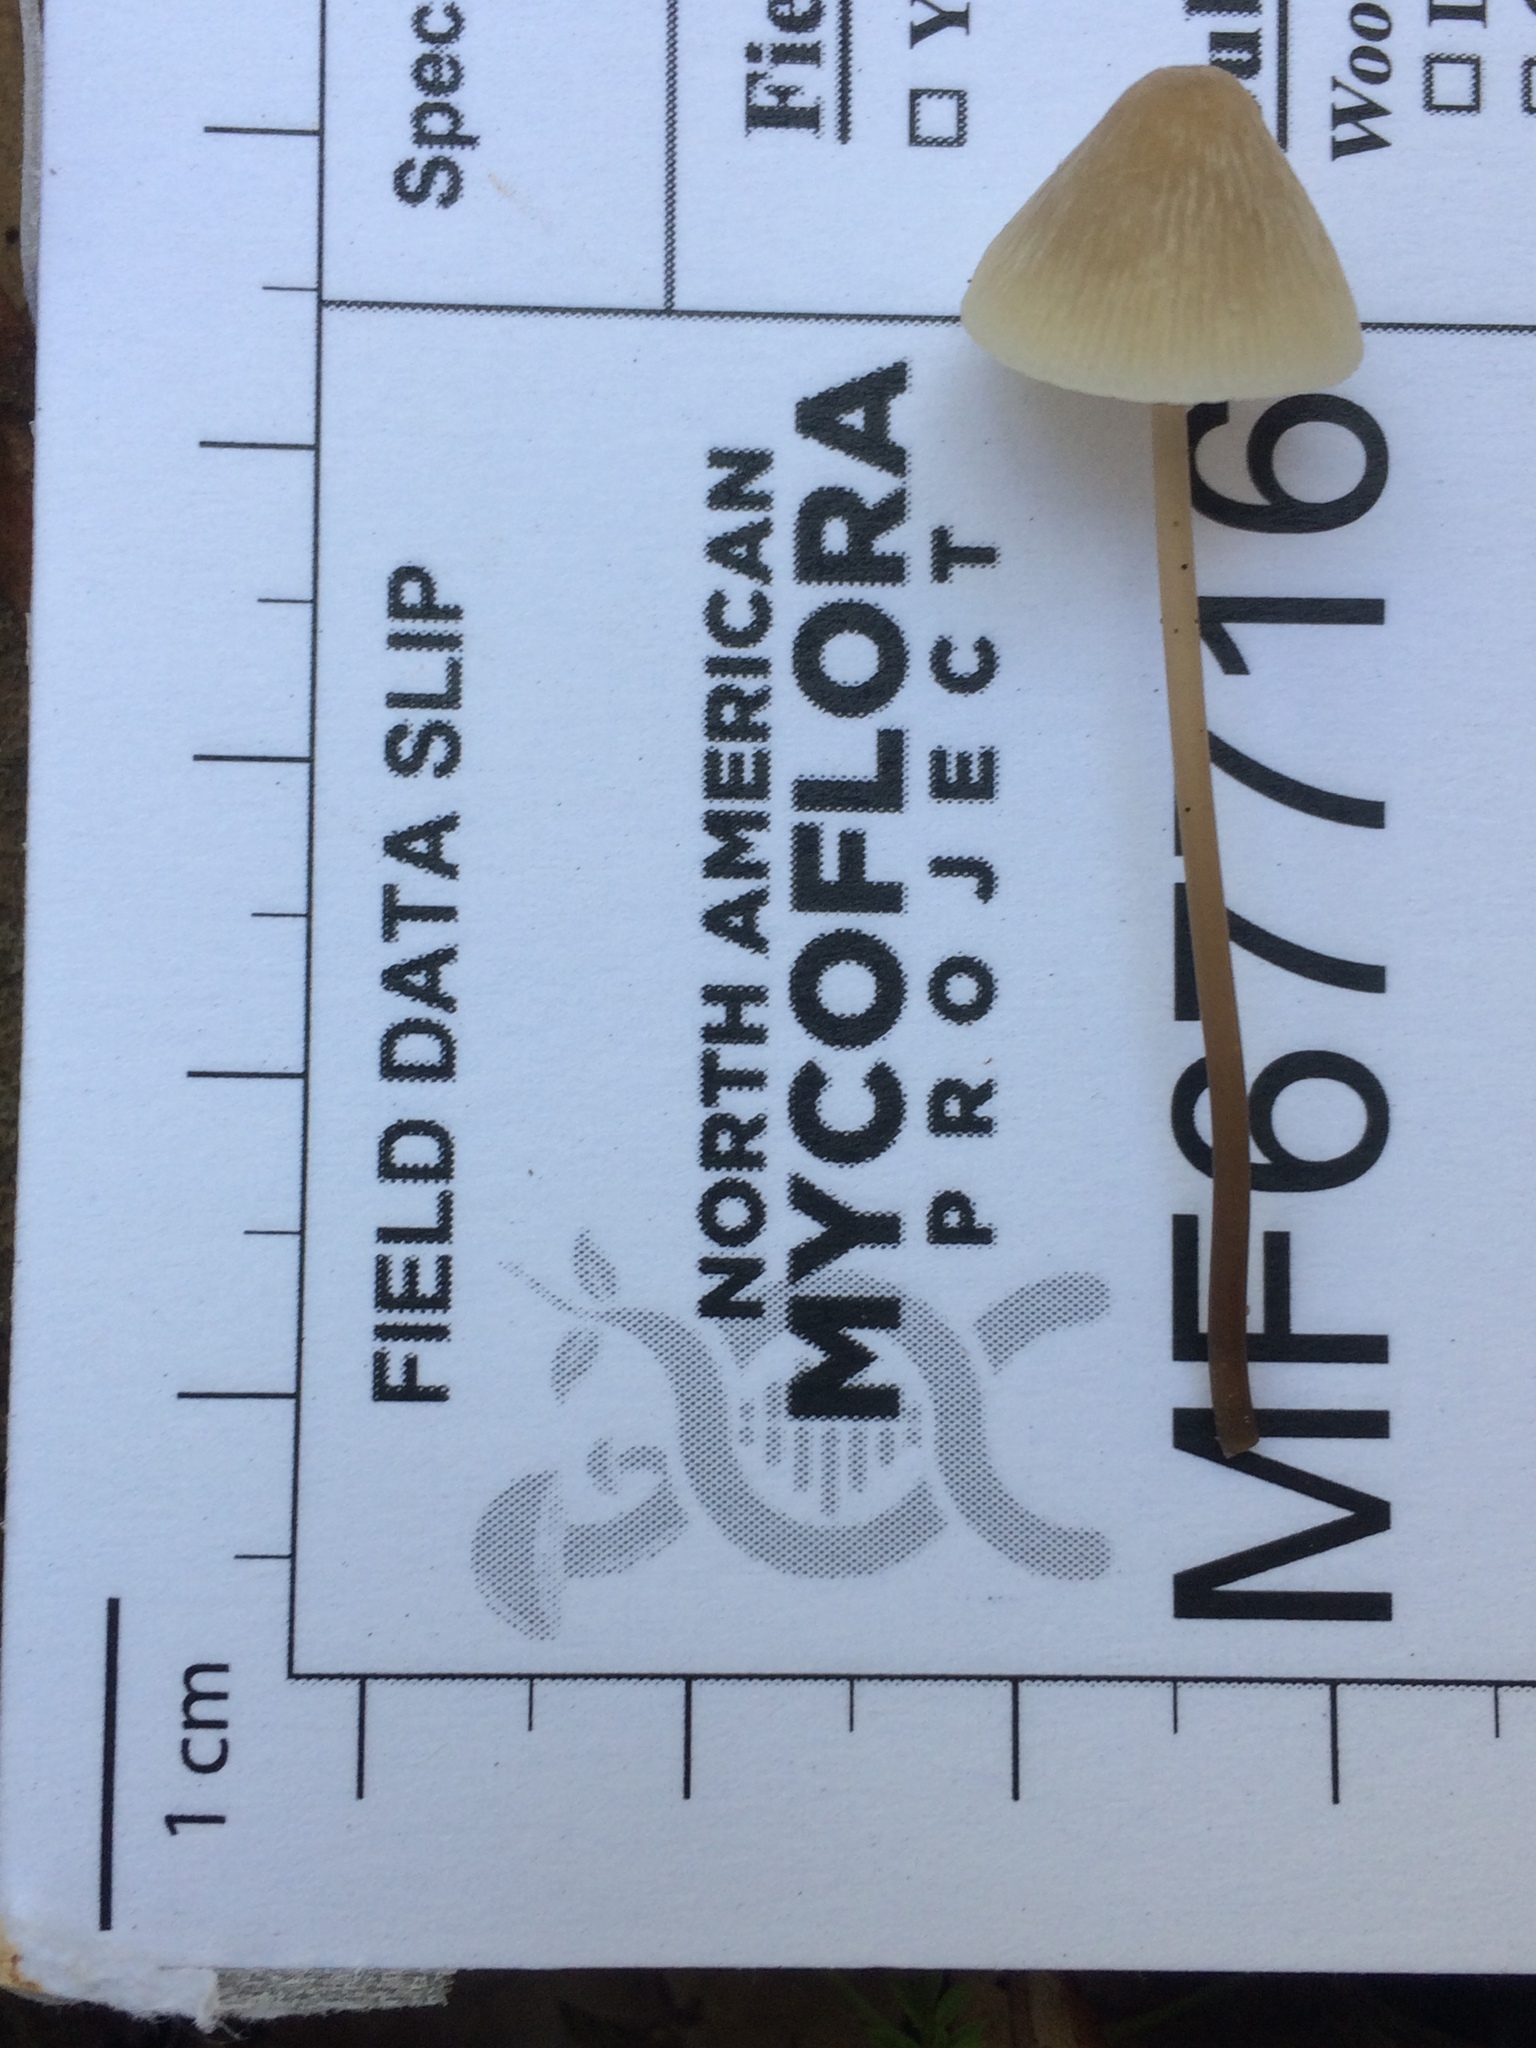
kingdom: Fungi
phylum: Basidiomycota
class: Agaricomycetes
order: Agaricales
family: Mycenaceae
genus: Mycena
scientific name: Mycena filopes
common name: Iodine bonnet
